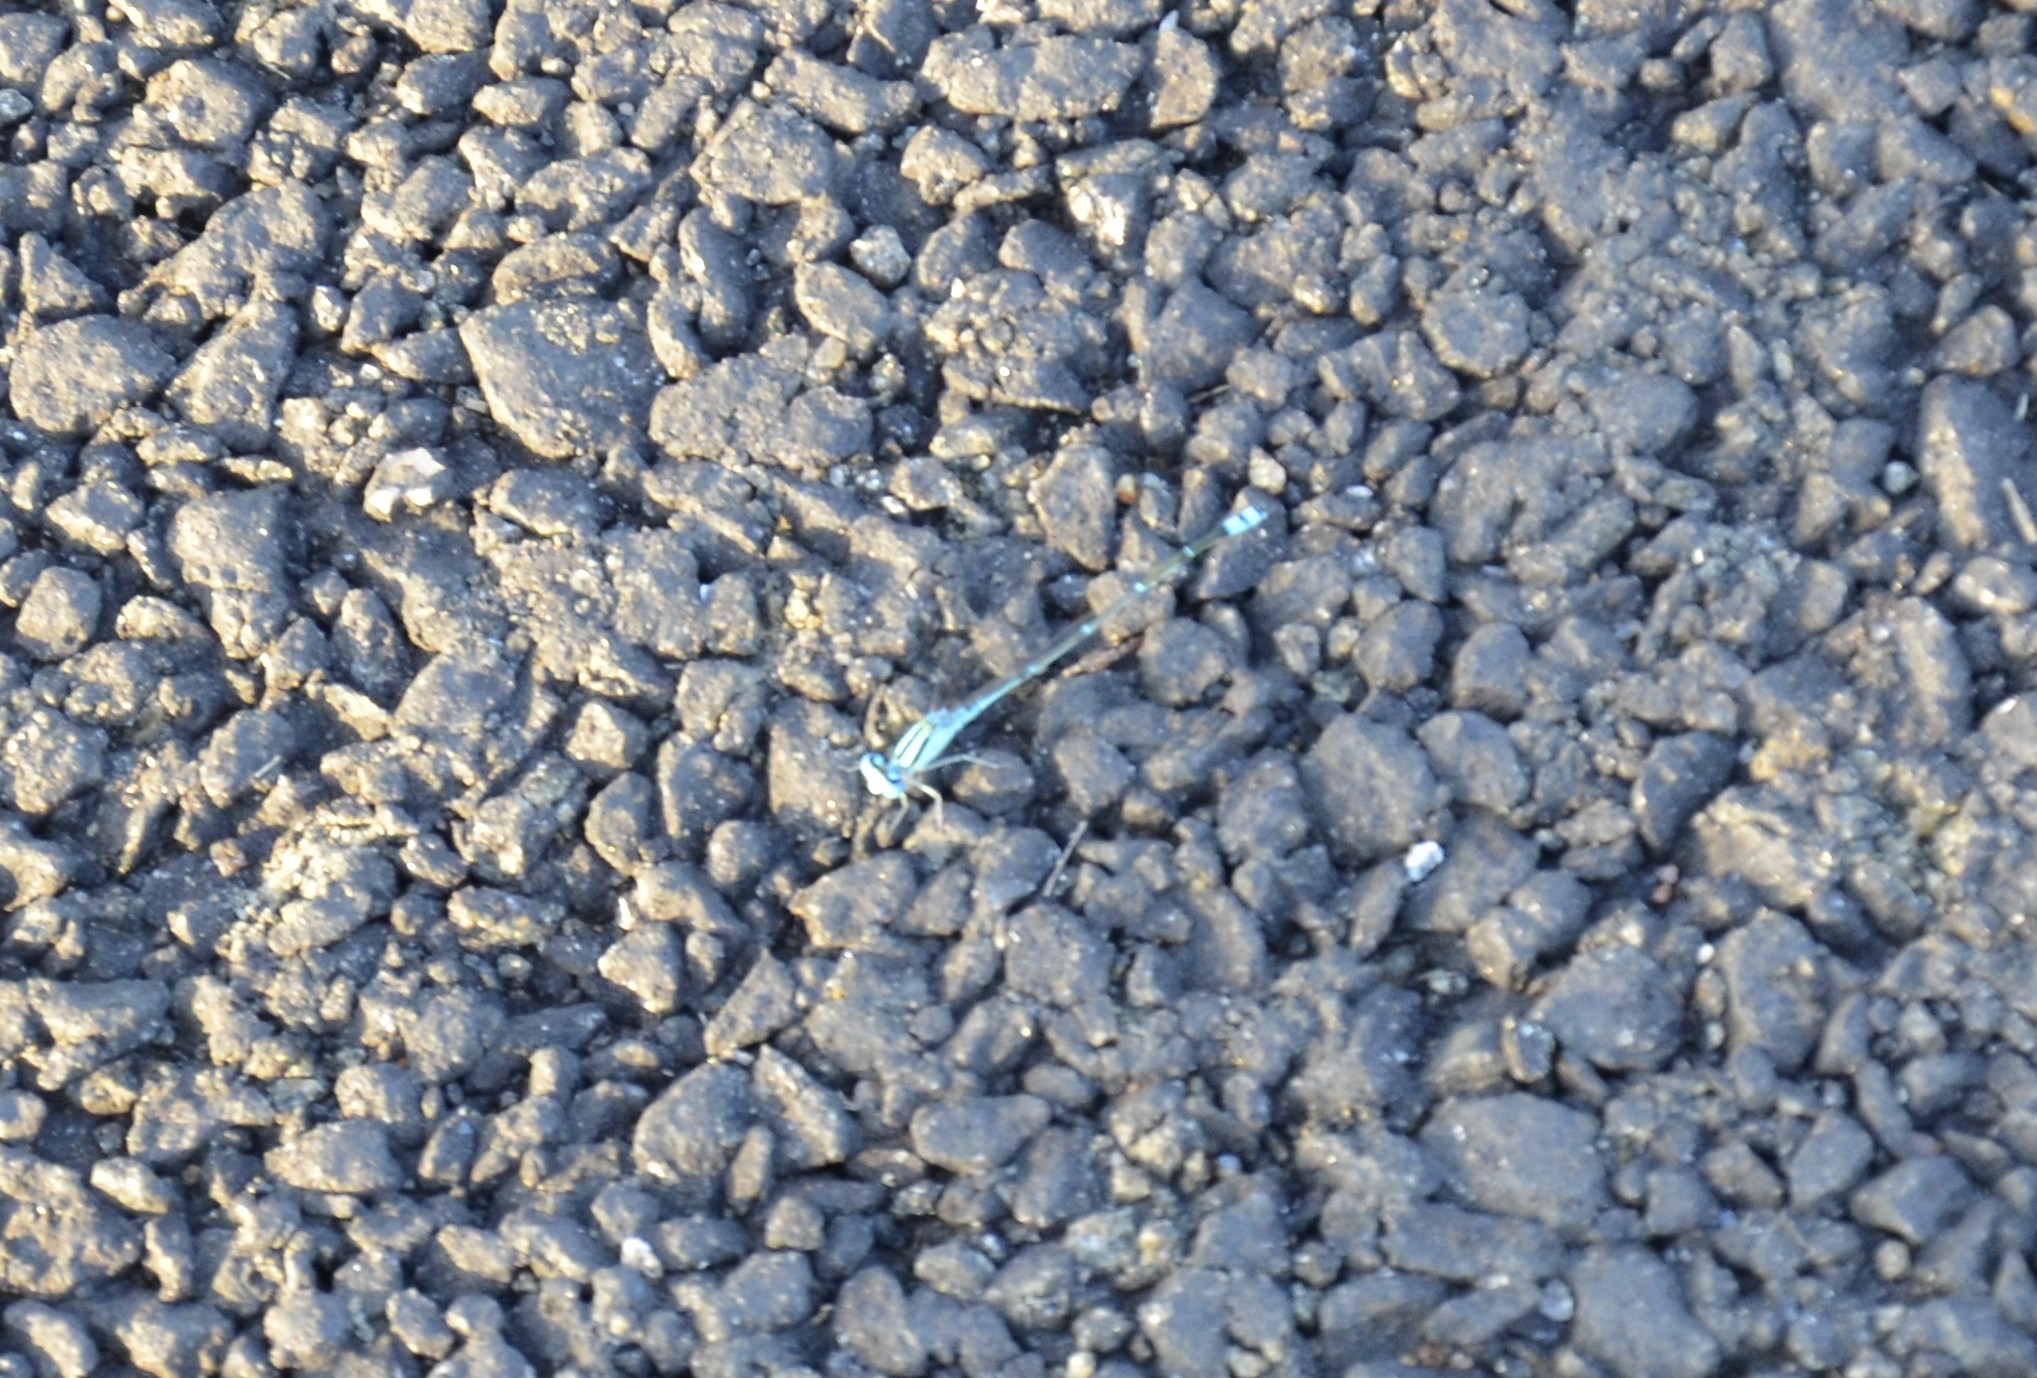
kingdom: Animalia
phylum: Arthropoda
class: Insecta
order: Odonata
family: Coenagrionidae
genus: Pseudagrion
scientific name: Pseudagrion microcephalum
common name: Blue riverdamsel
